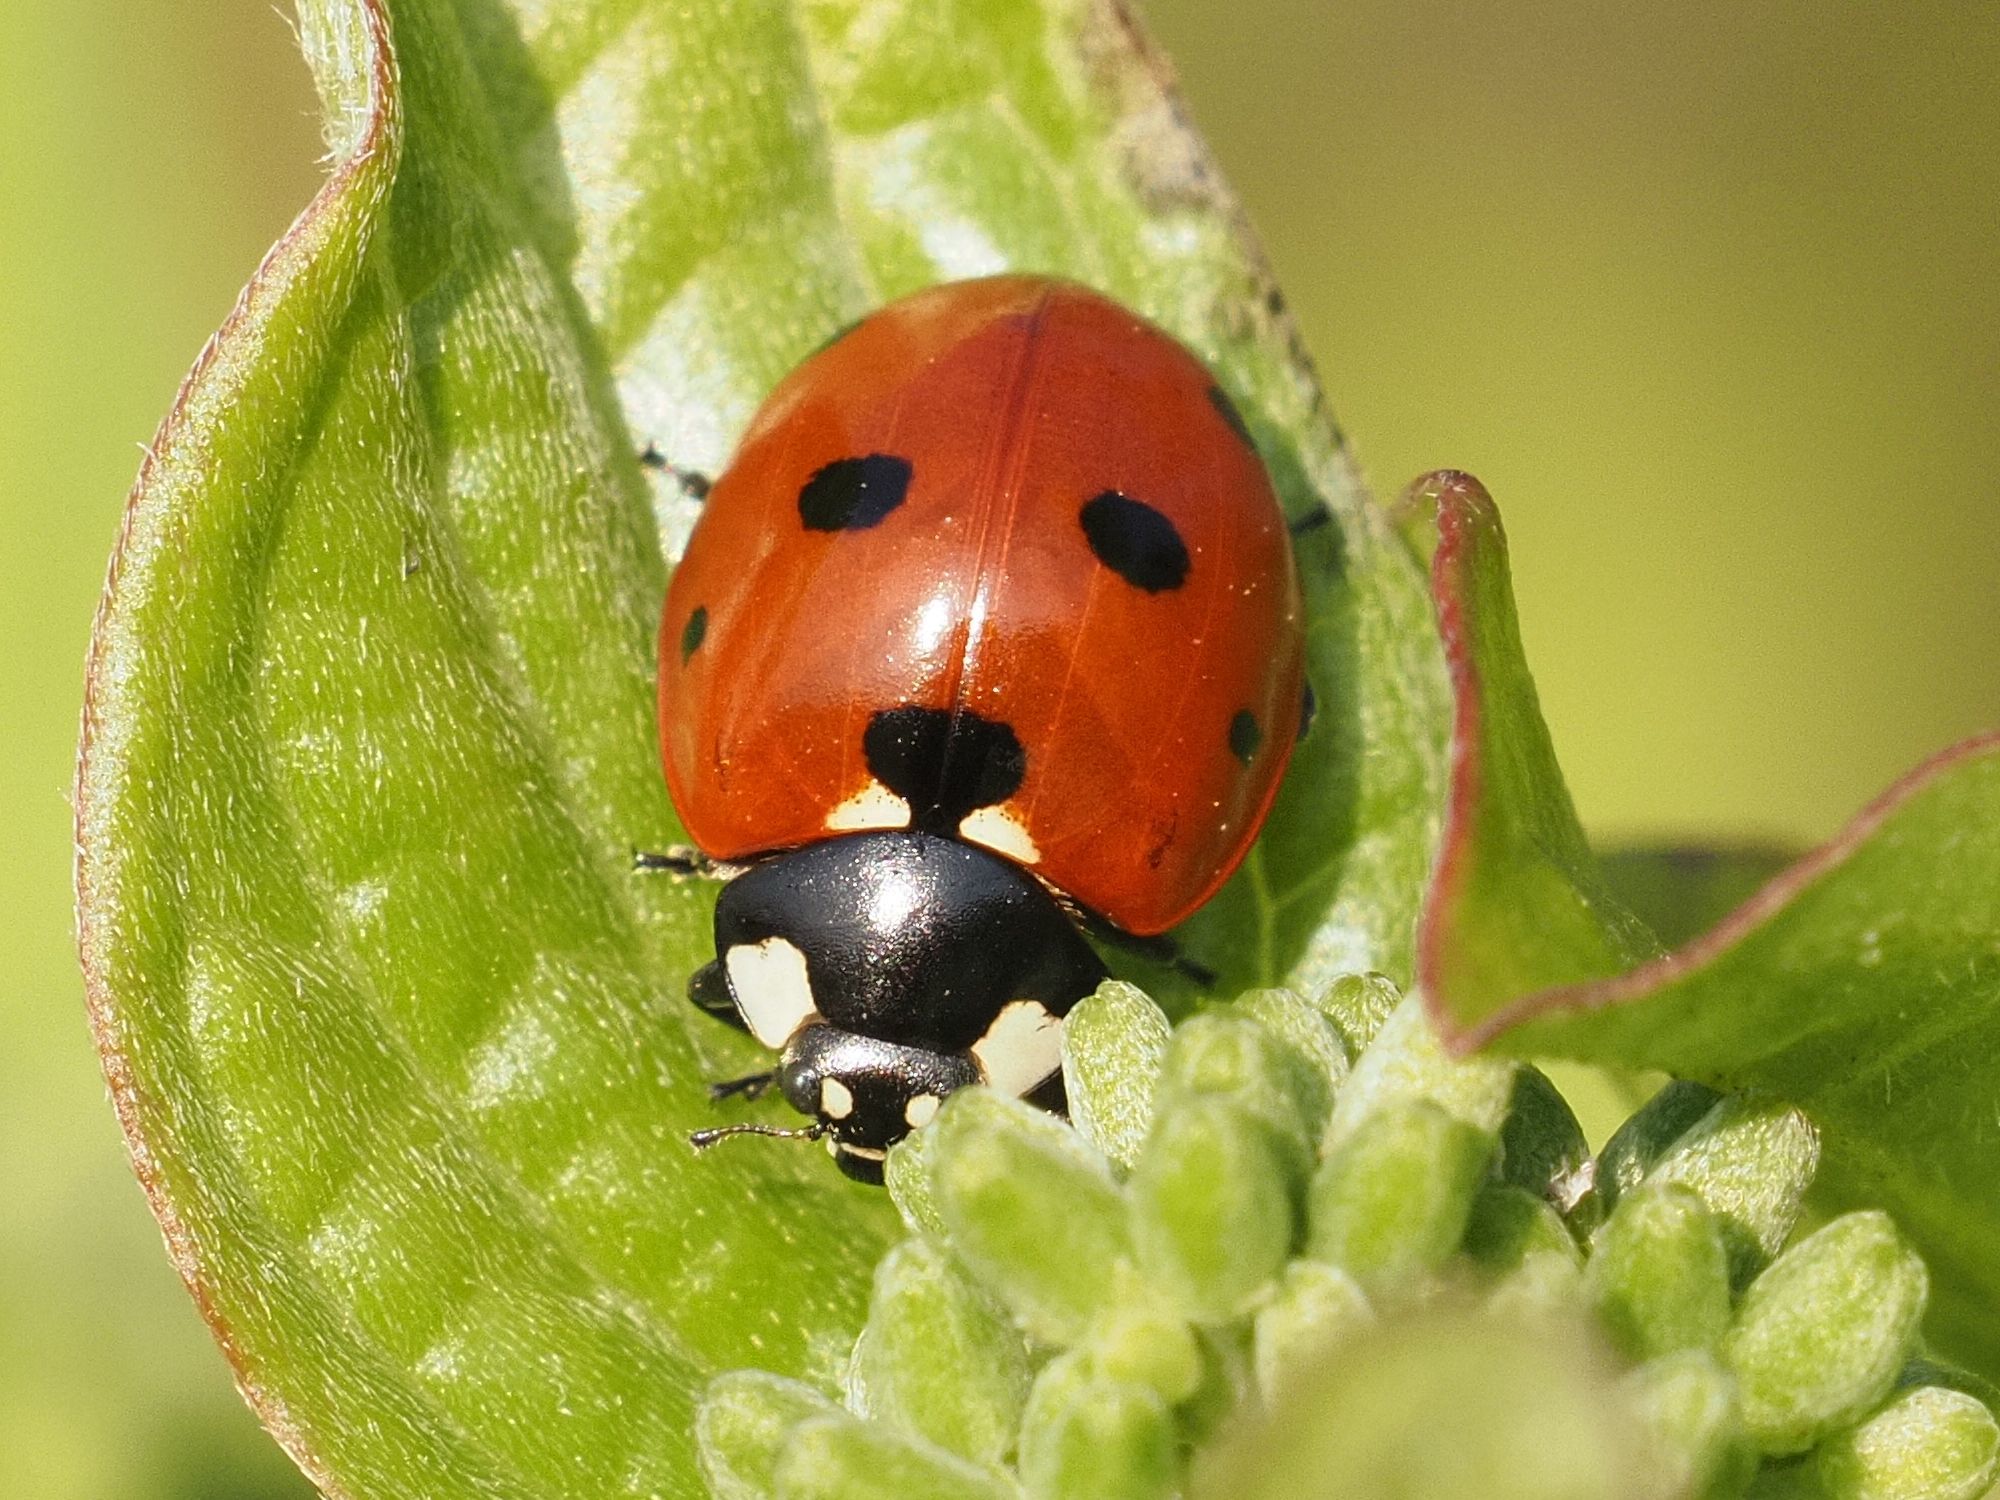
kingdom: Animalia
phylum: Arthropoda
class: Insecta
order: Coleoptera
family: Coccinellidae
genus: Coccinella
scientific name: Coccinella septempunctata
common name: Sevenspotted lady beetle
